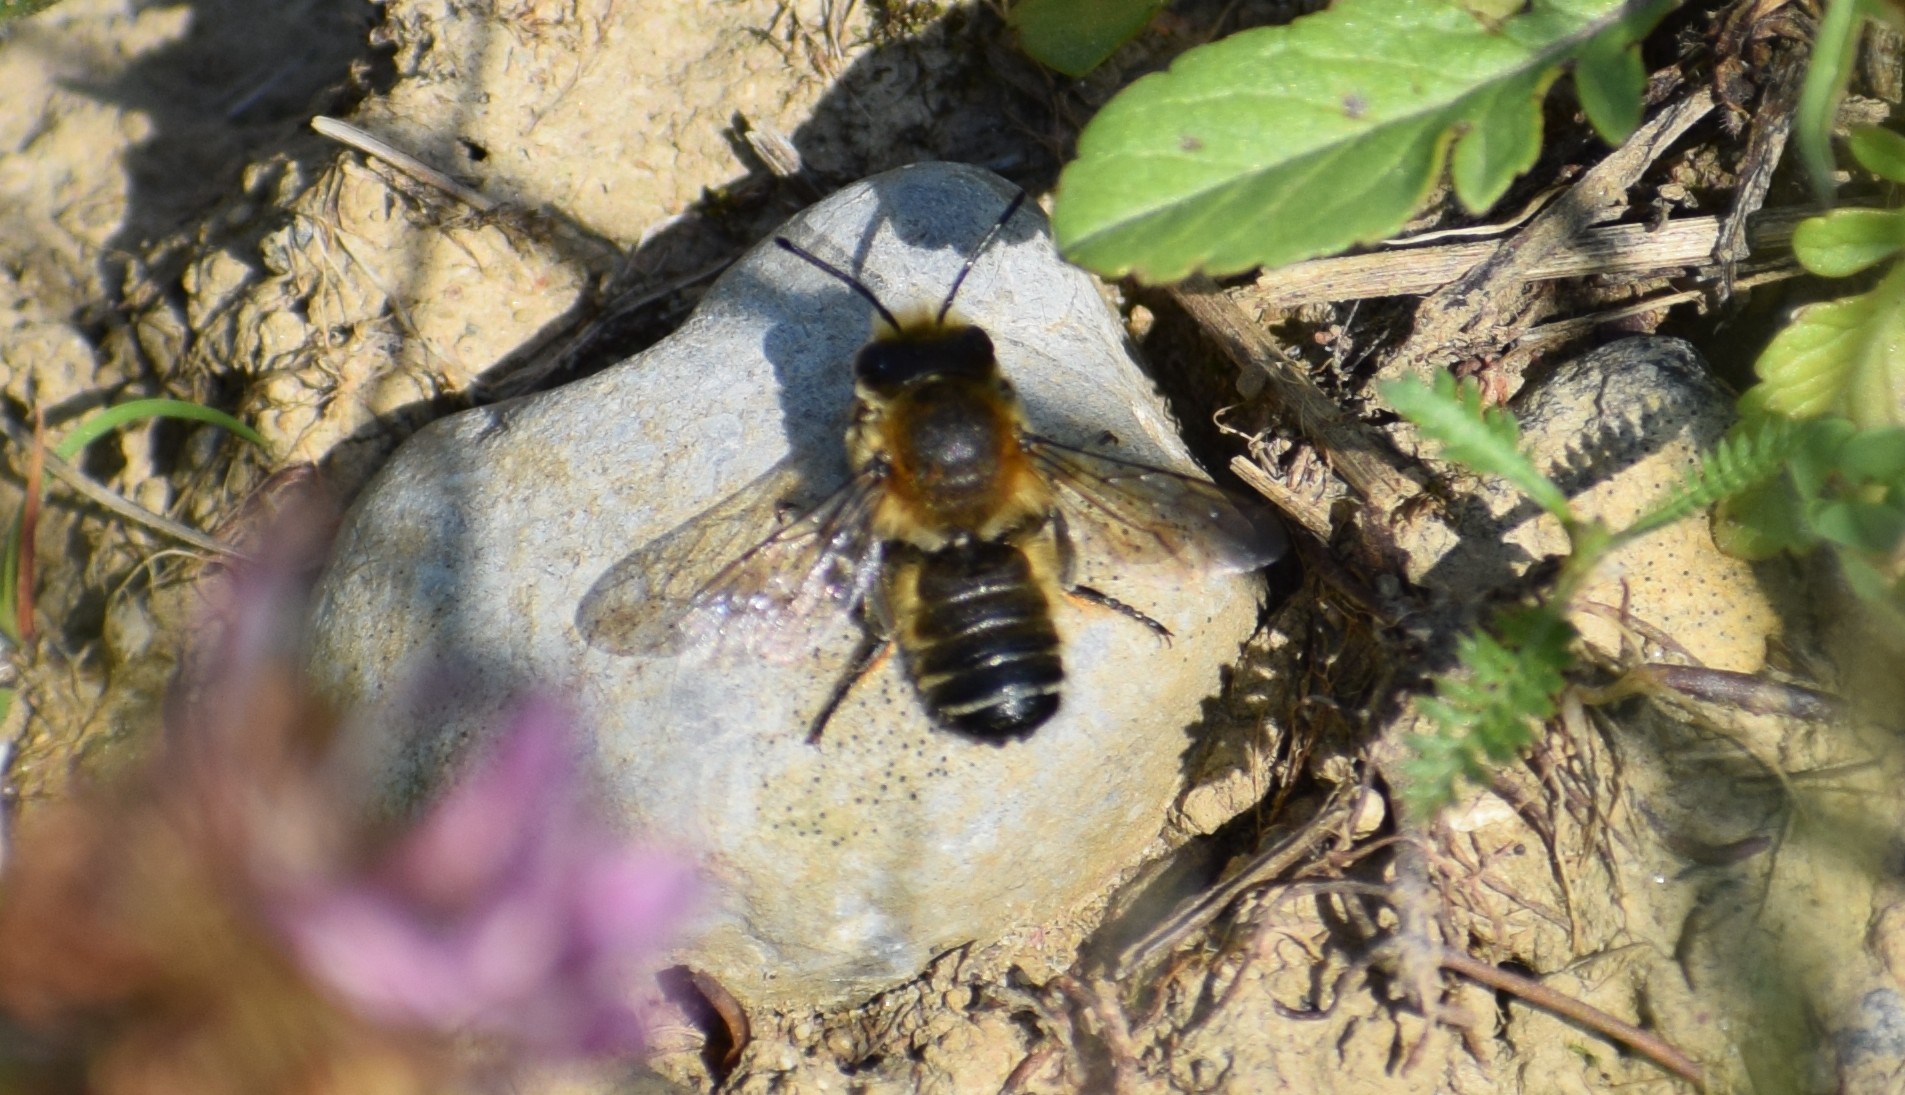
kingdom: Animalia
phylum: Arthropoda
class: Insecta
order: Hymenoptera
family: Megachilidae
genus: Megachile
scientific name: Megachile
